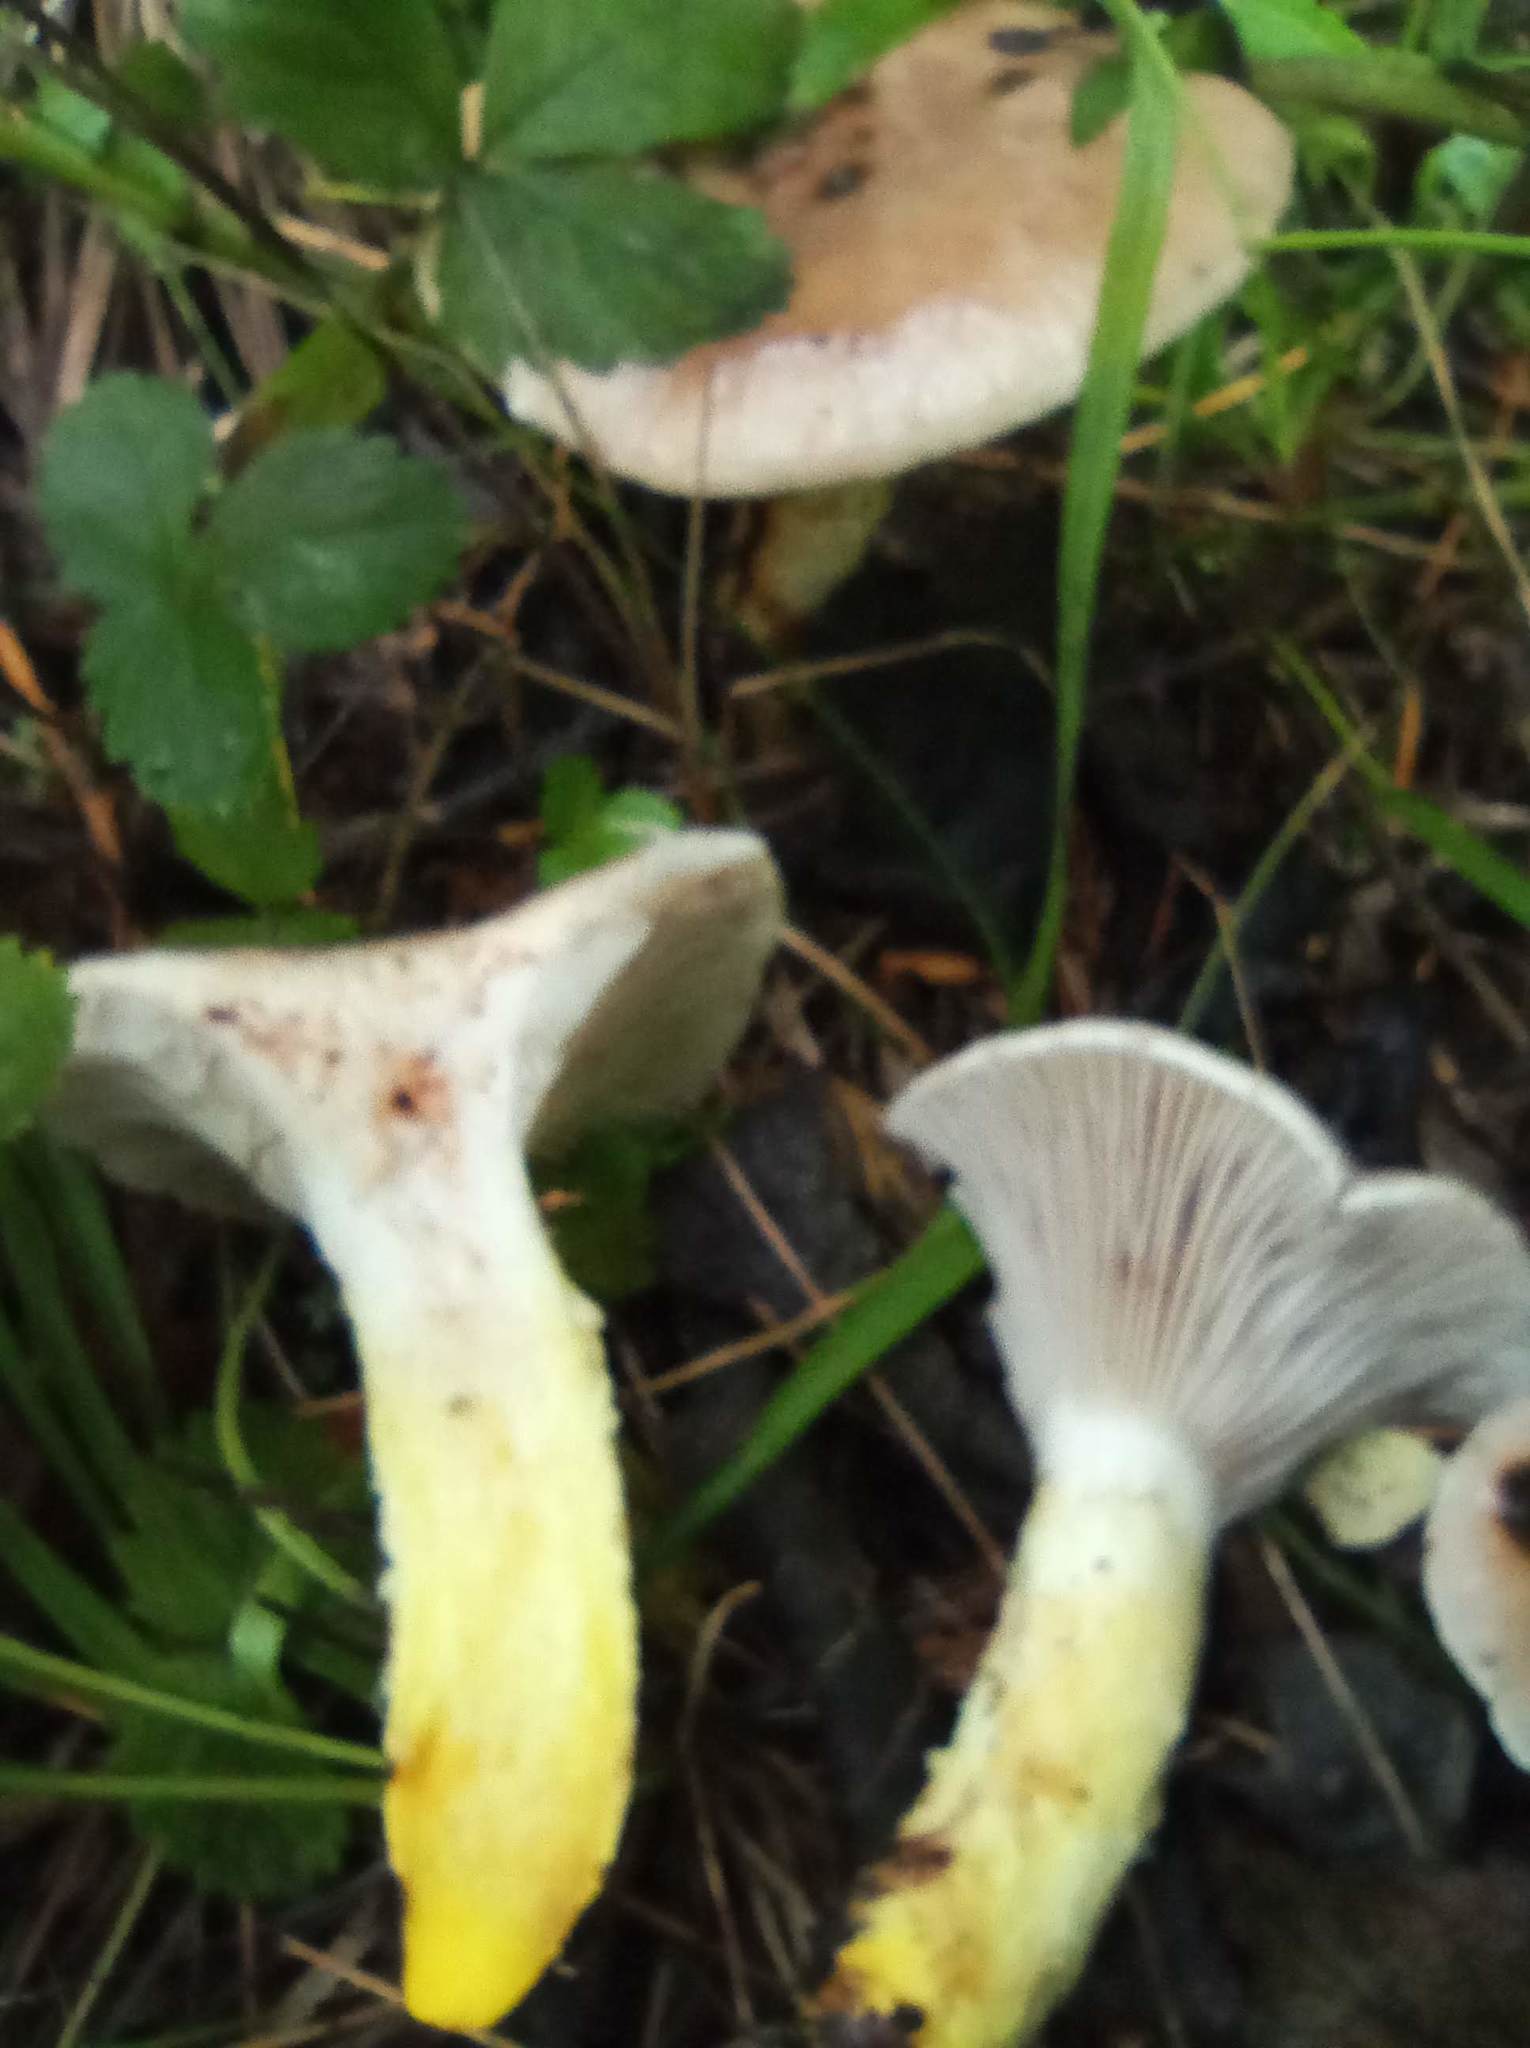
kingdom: Fungi
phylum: Basidiomycota
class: Agaricomycetes
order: Boletales
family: Gomphidiaceae
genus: Gomphidius
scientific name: Gomphidius glutinosus
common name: Slimy spike
